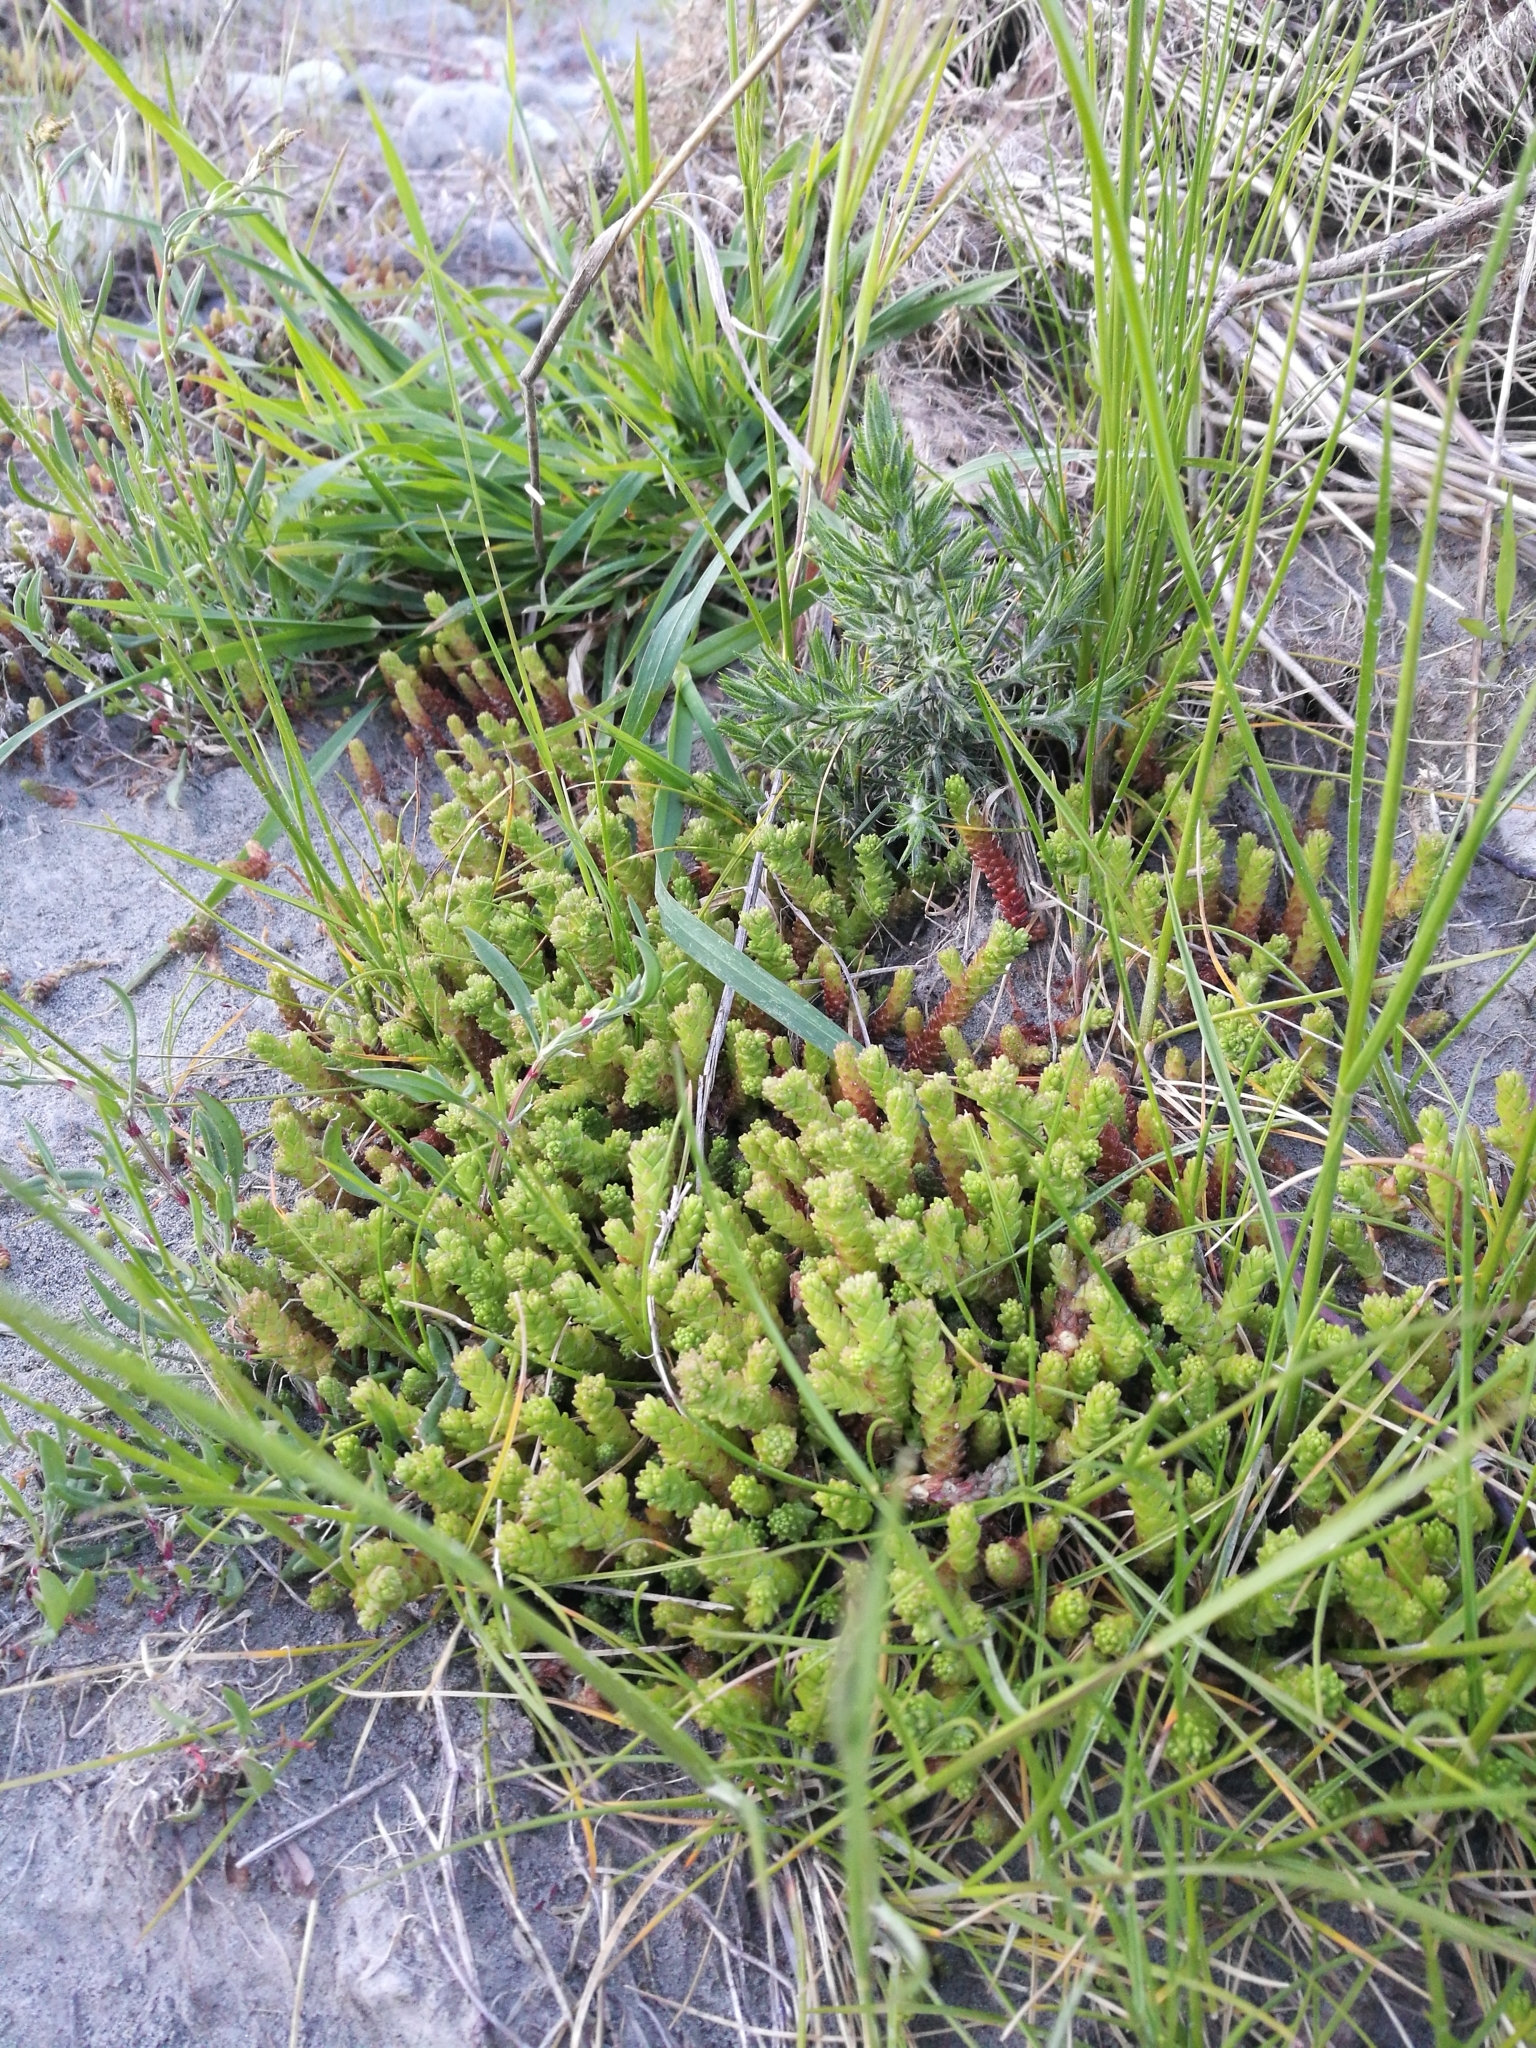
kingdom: Plantae
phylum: Tracheophyta
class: Magnoliopsida
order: Saxifragales
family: Crassulaceae
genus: Sedum
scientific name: Sedum acre
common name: Biting stonecrop
